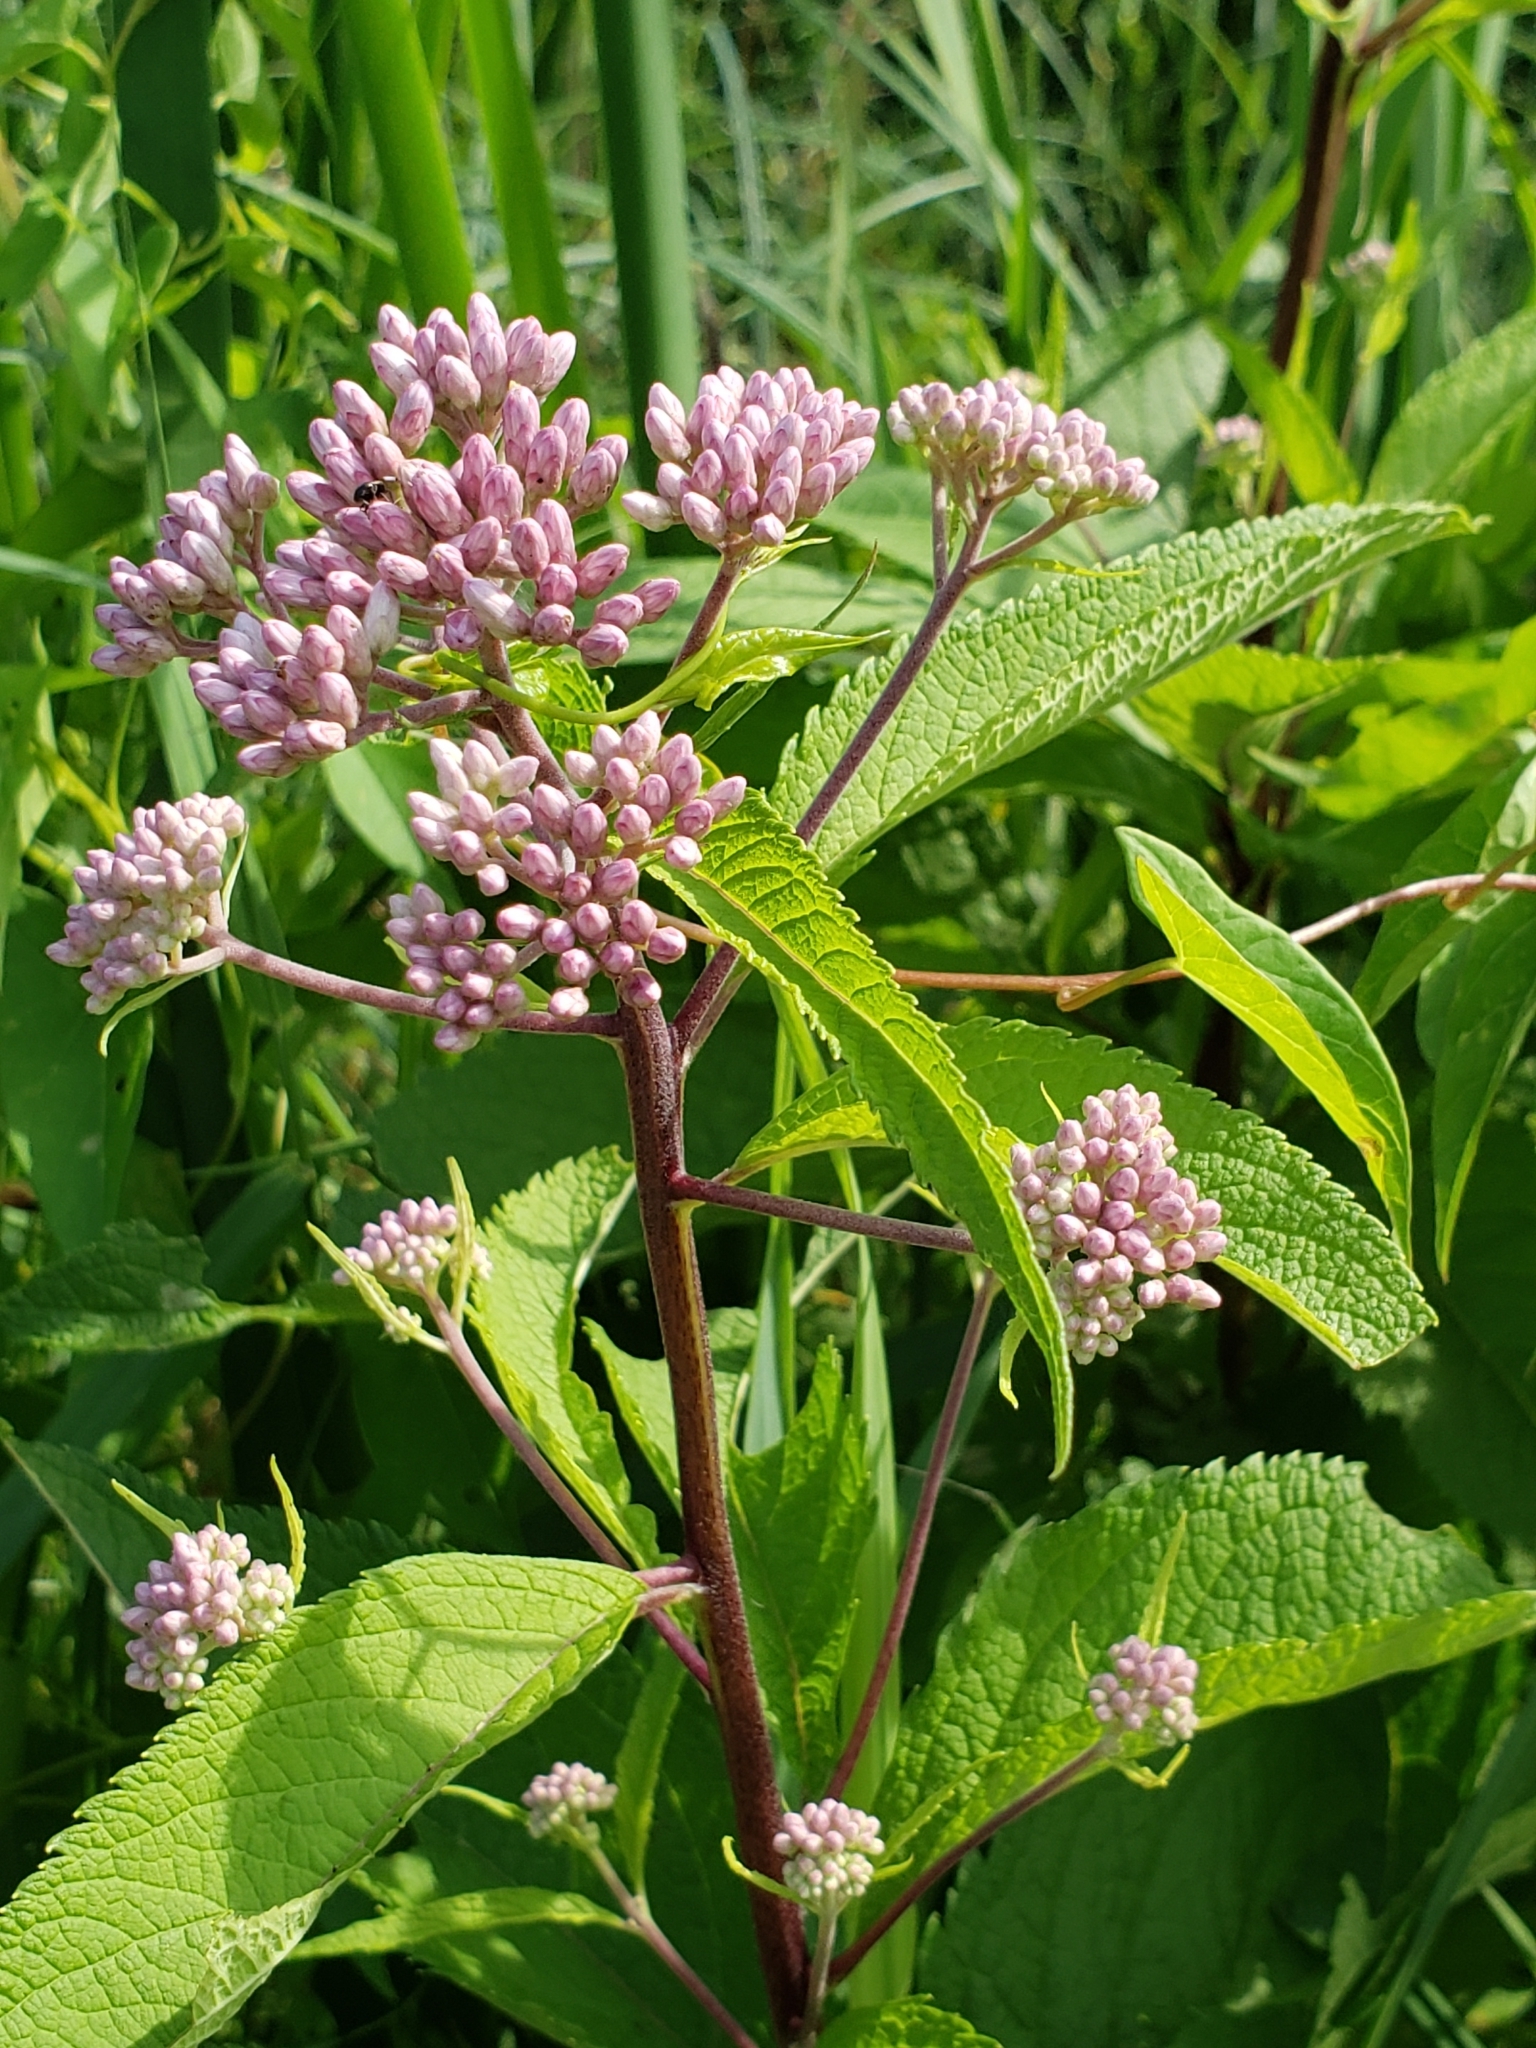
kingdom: Plantae
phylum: Tracheophyta
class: Magnoliopsida
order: Asterales
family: Asteraceae
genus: Eutrochium
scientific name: Eutrochium maculatum
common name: Spotted joe pye weed
